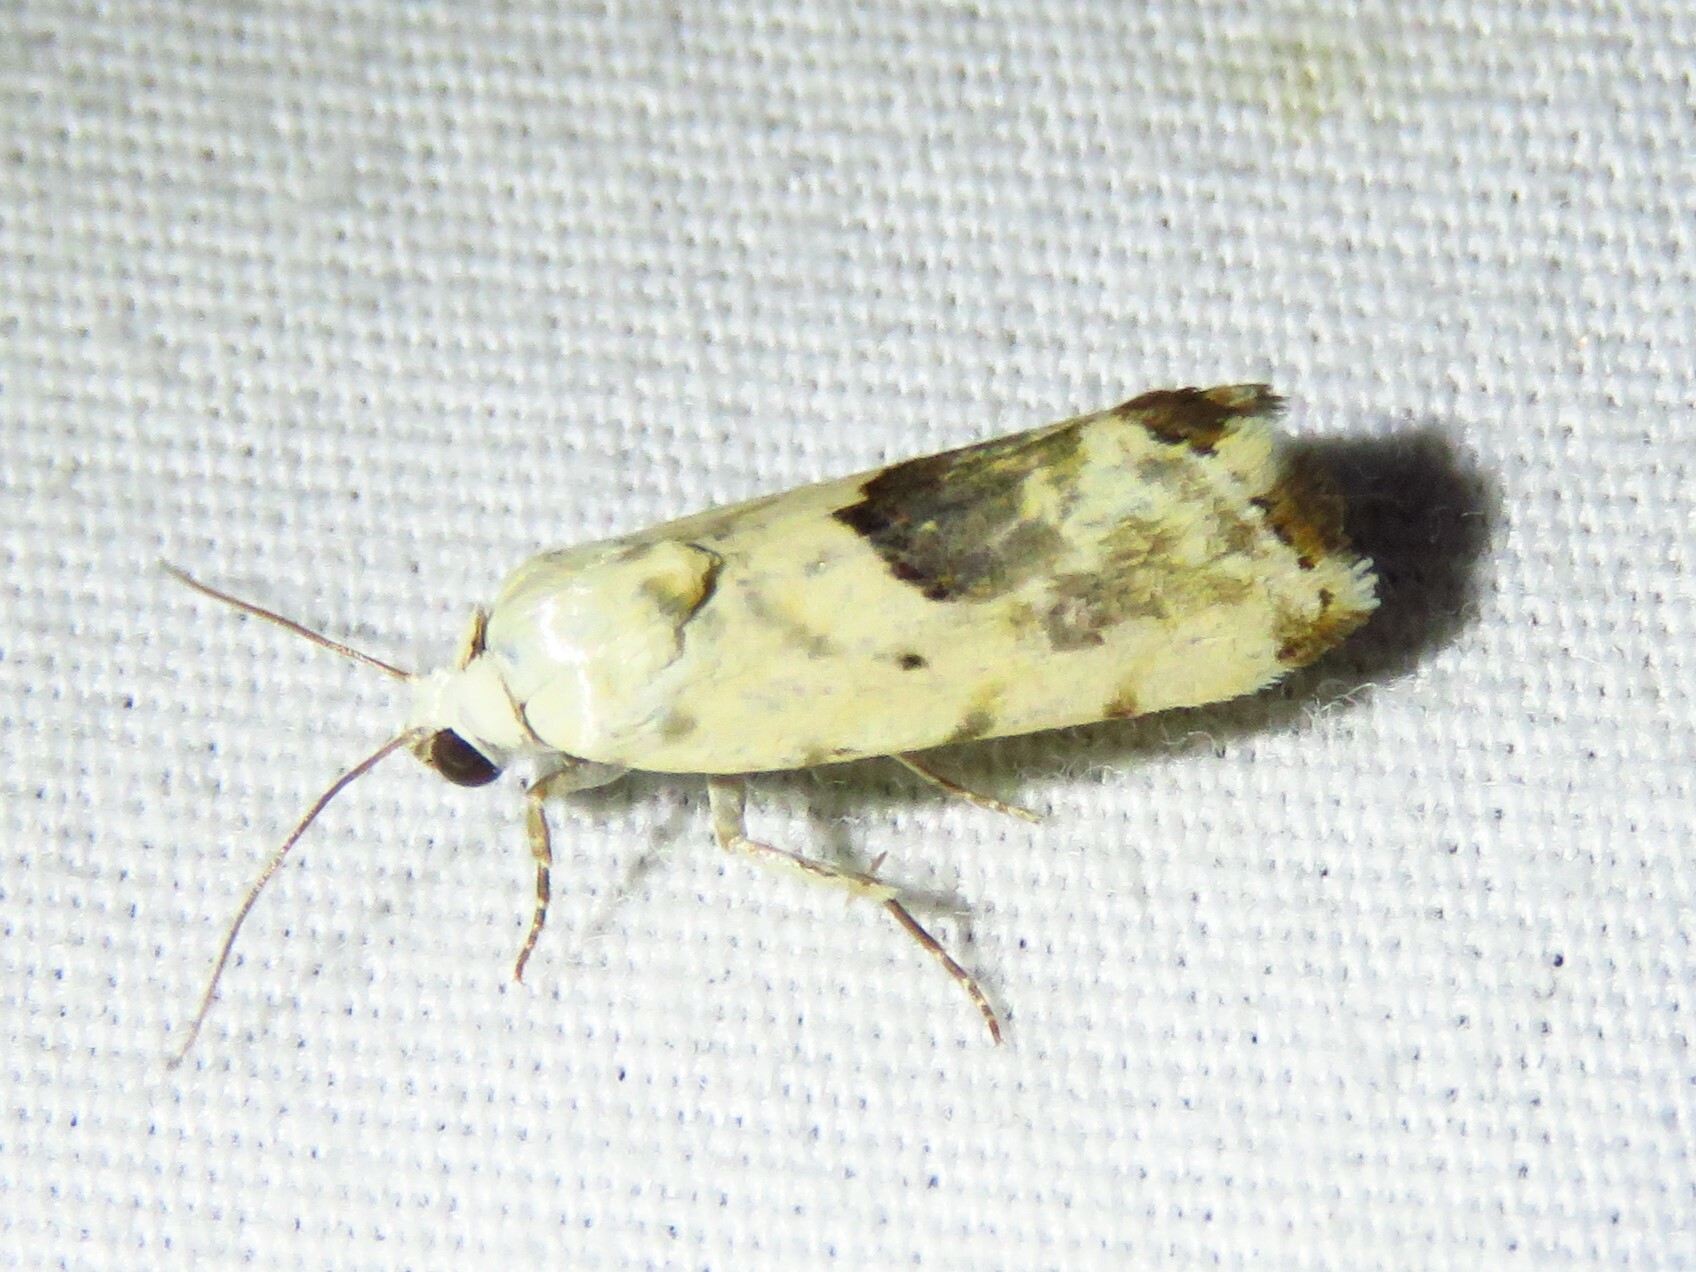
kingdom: Animalia
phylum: Arthropoda
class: Insecta
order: Lepidoptera
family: Noctuidae
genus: Acontia
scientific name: Acontia libedis
